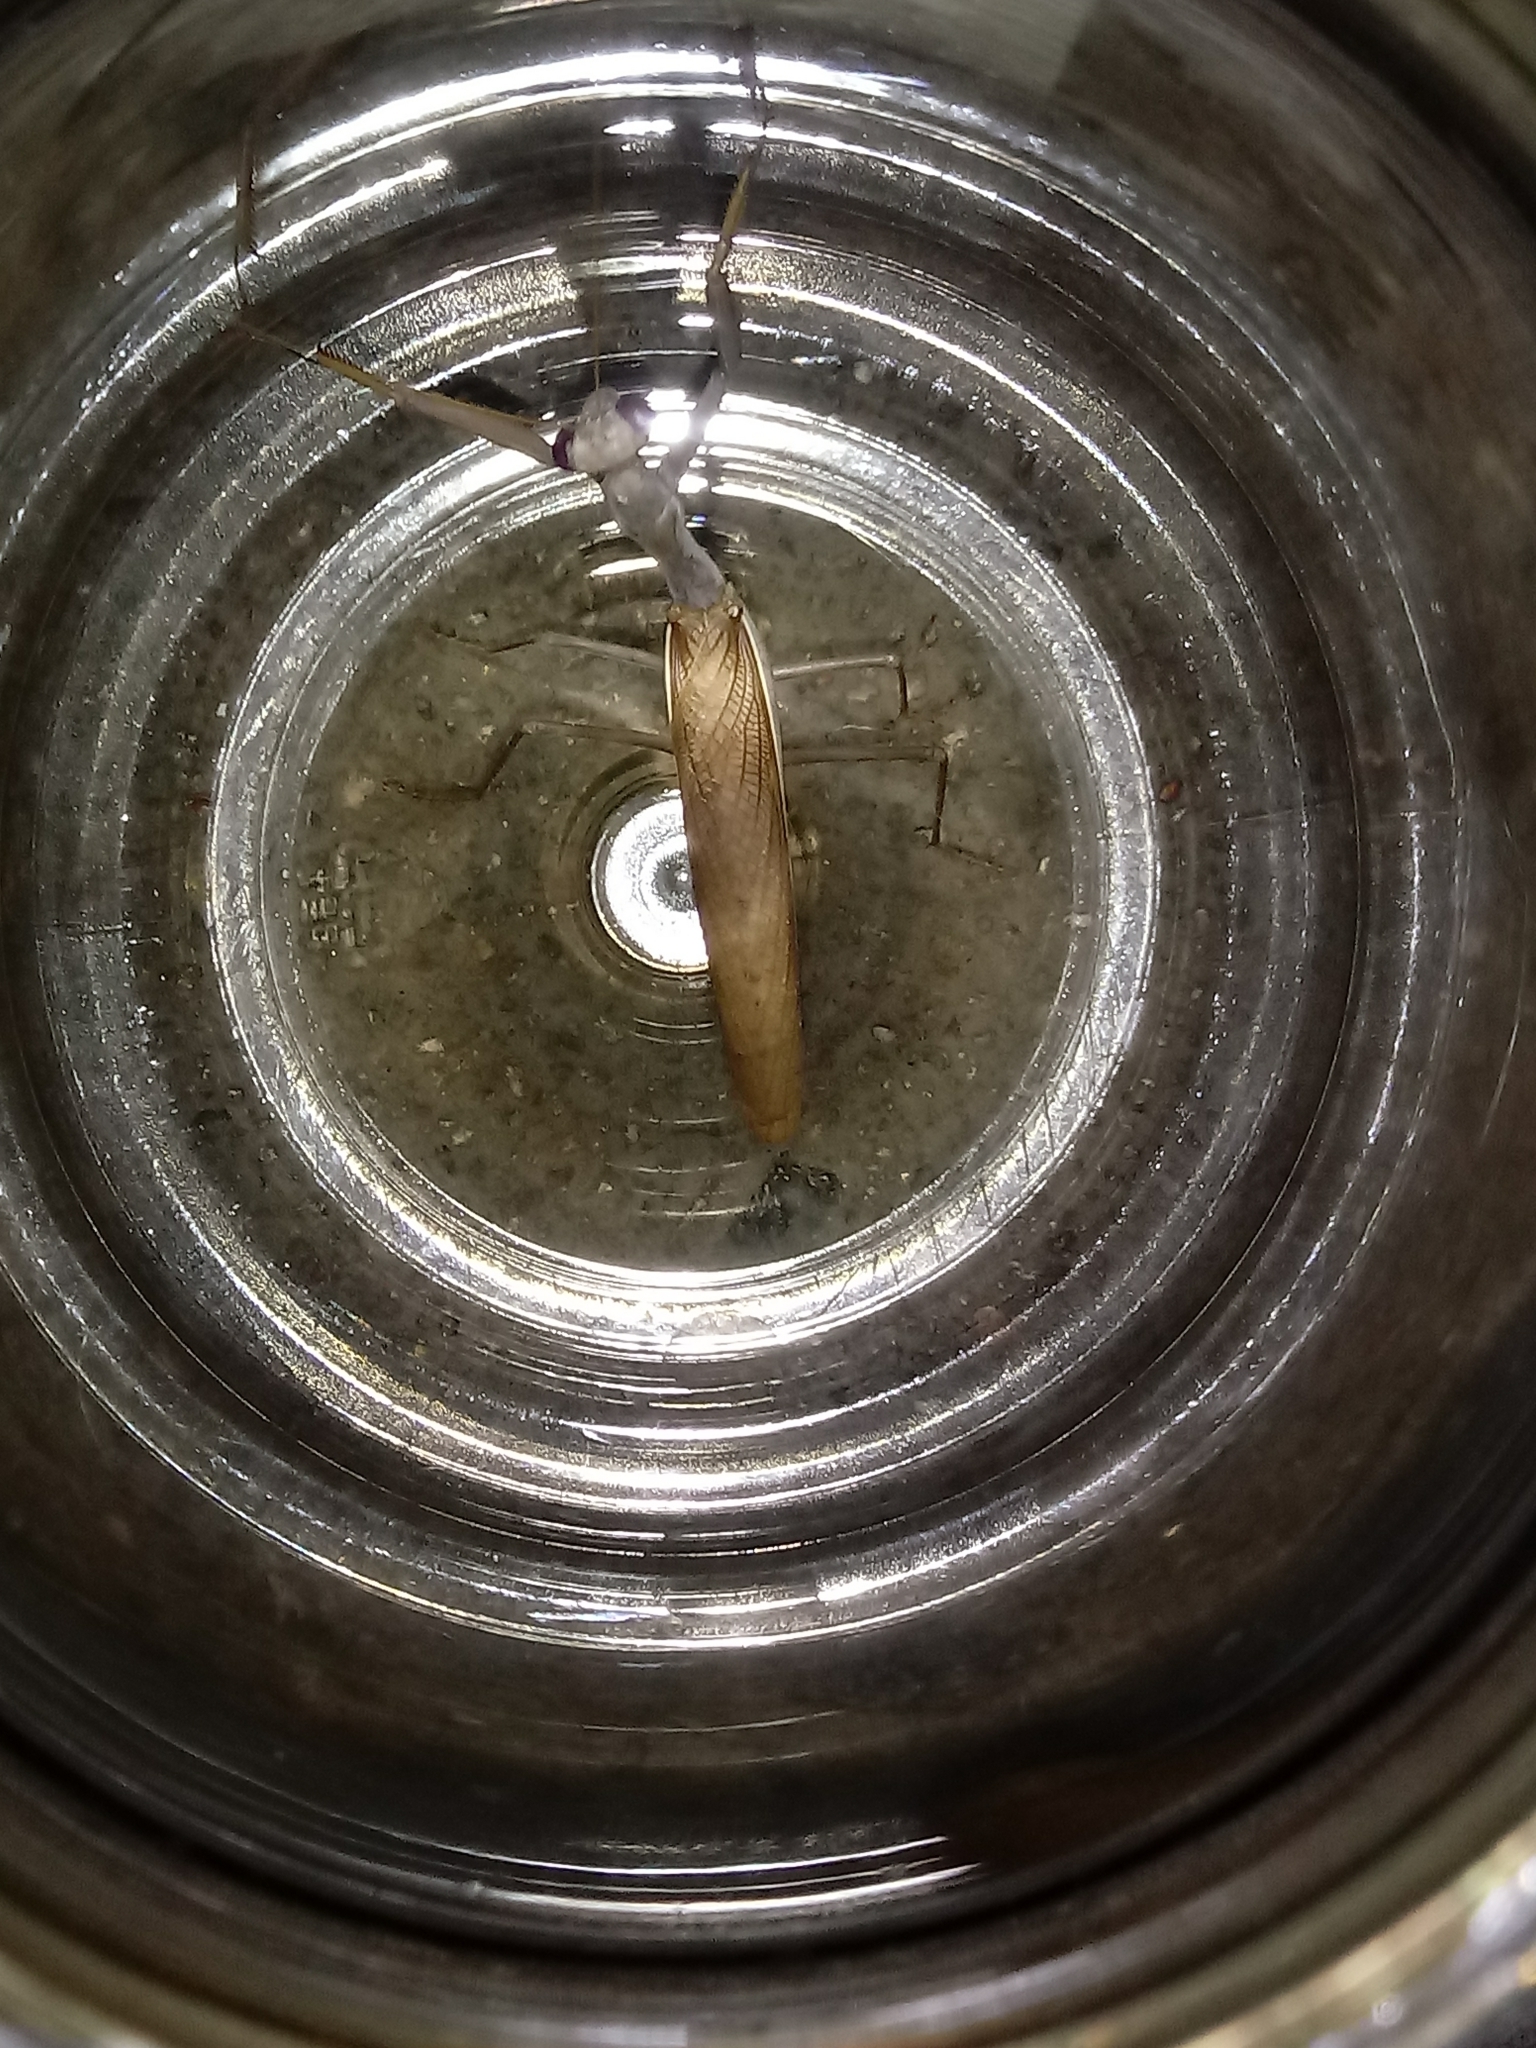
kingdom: Animalia
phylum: Arthropoda
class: Insecta
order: Mantodea
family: Eremiaphilidae
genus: Iris
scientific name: Iris oratoria
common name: Mediterranean mantis
